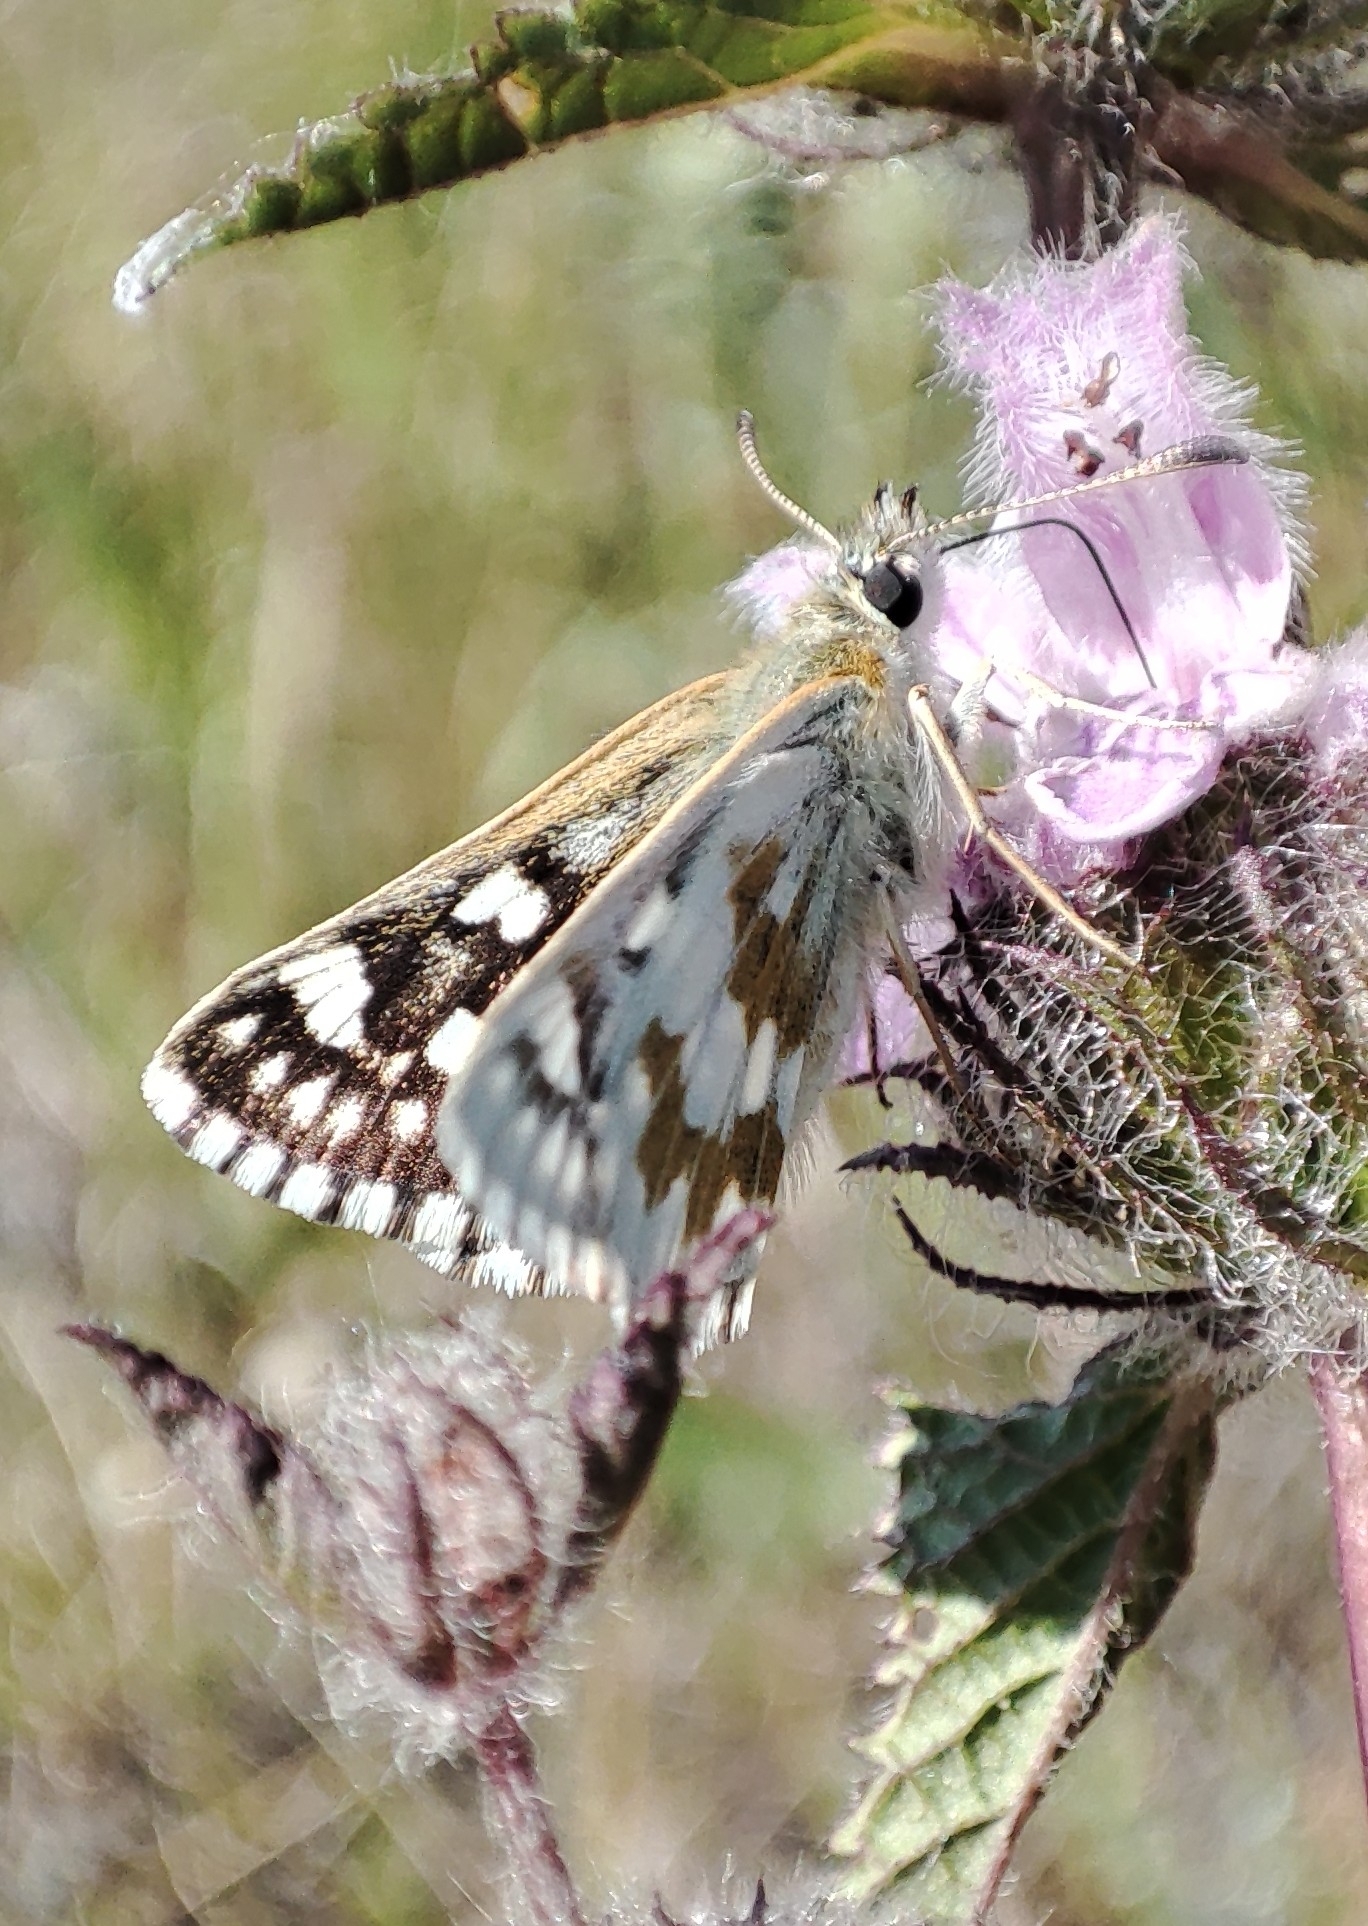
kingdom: Animalia
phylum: Arthropoda
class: Insecta
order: Lepidoptera
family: Hesperiidae
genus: Syrichtus
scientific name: Syrichtus cribrellum
